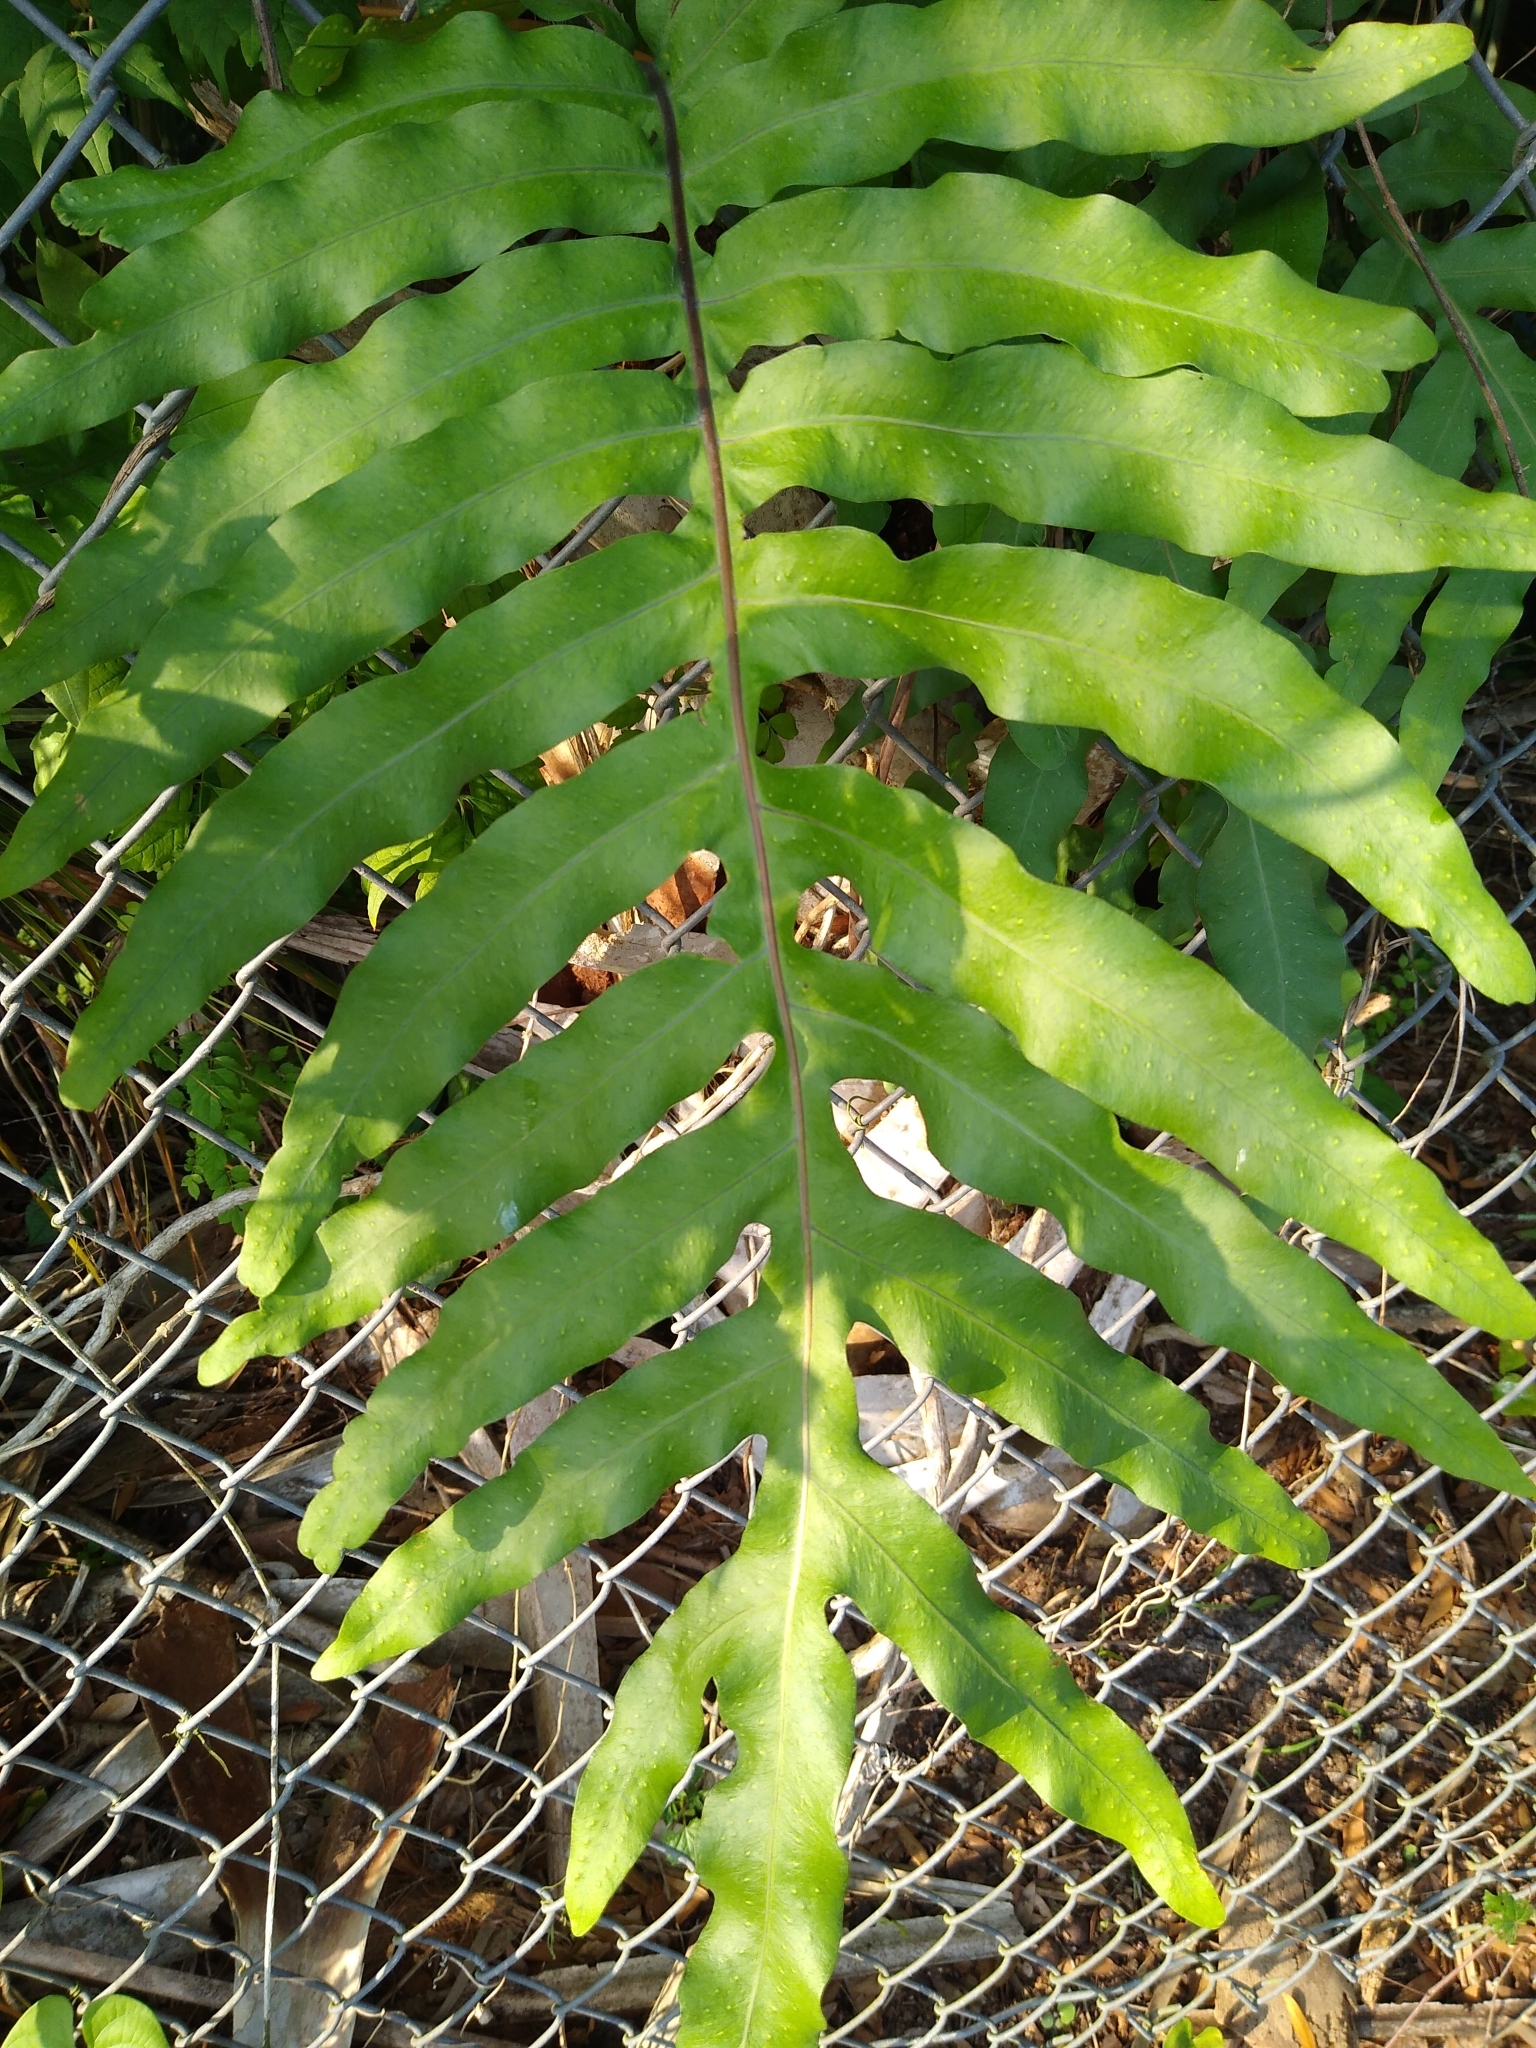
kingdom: Plantae
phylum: Tracheophyta
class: Polypodiopsida
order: Polypodiales
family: Polypodiaceae
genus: Phlebodium
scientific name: Phlebodium aureum
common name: Gold-foot fern
